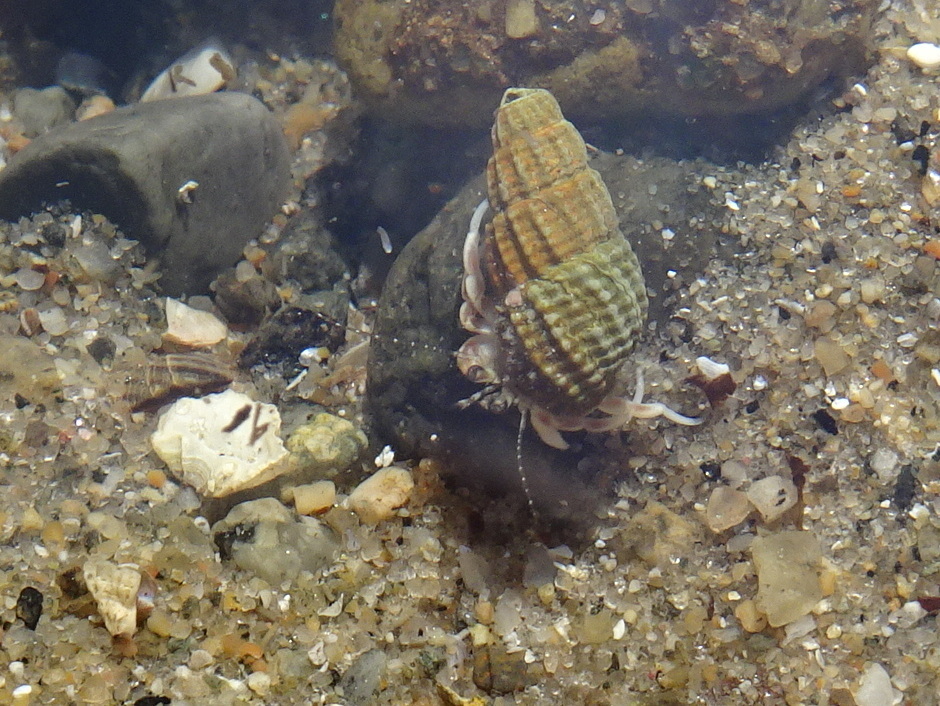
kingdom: Animalia
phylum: Arthropoda
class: Malacostraca
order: Decapoda
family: Paguridae
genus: Pagurus
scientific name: Pagurus longicarpus
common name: Long-armed hermit crab
